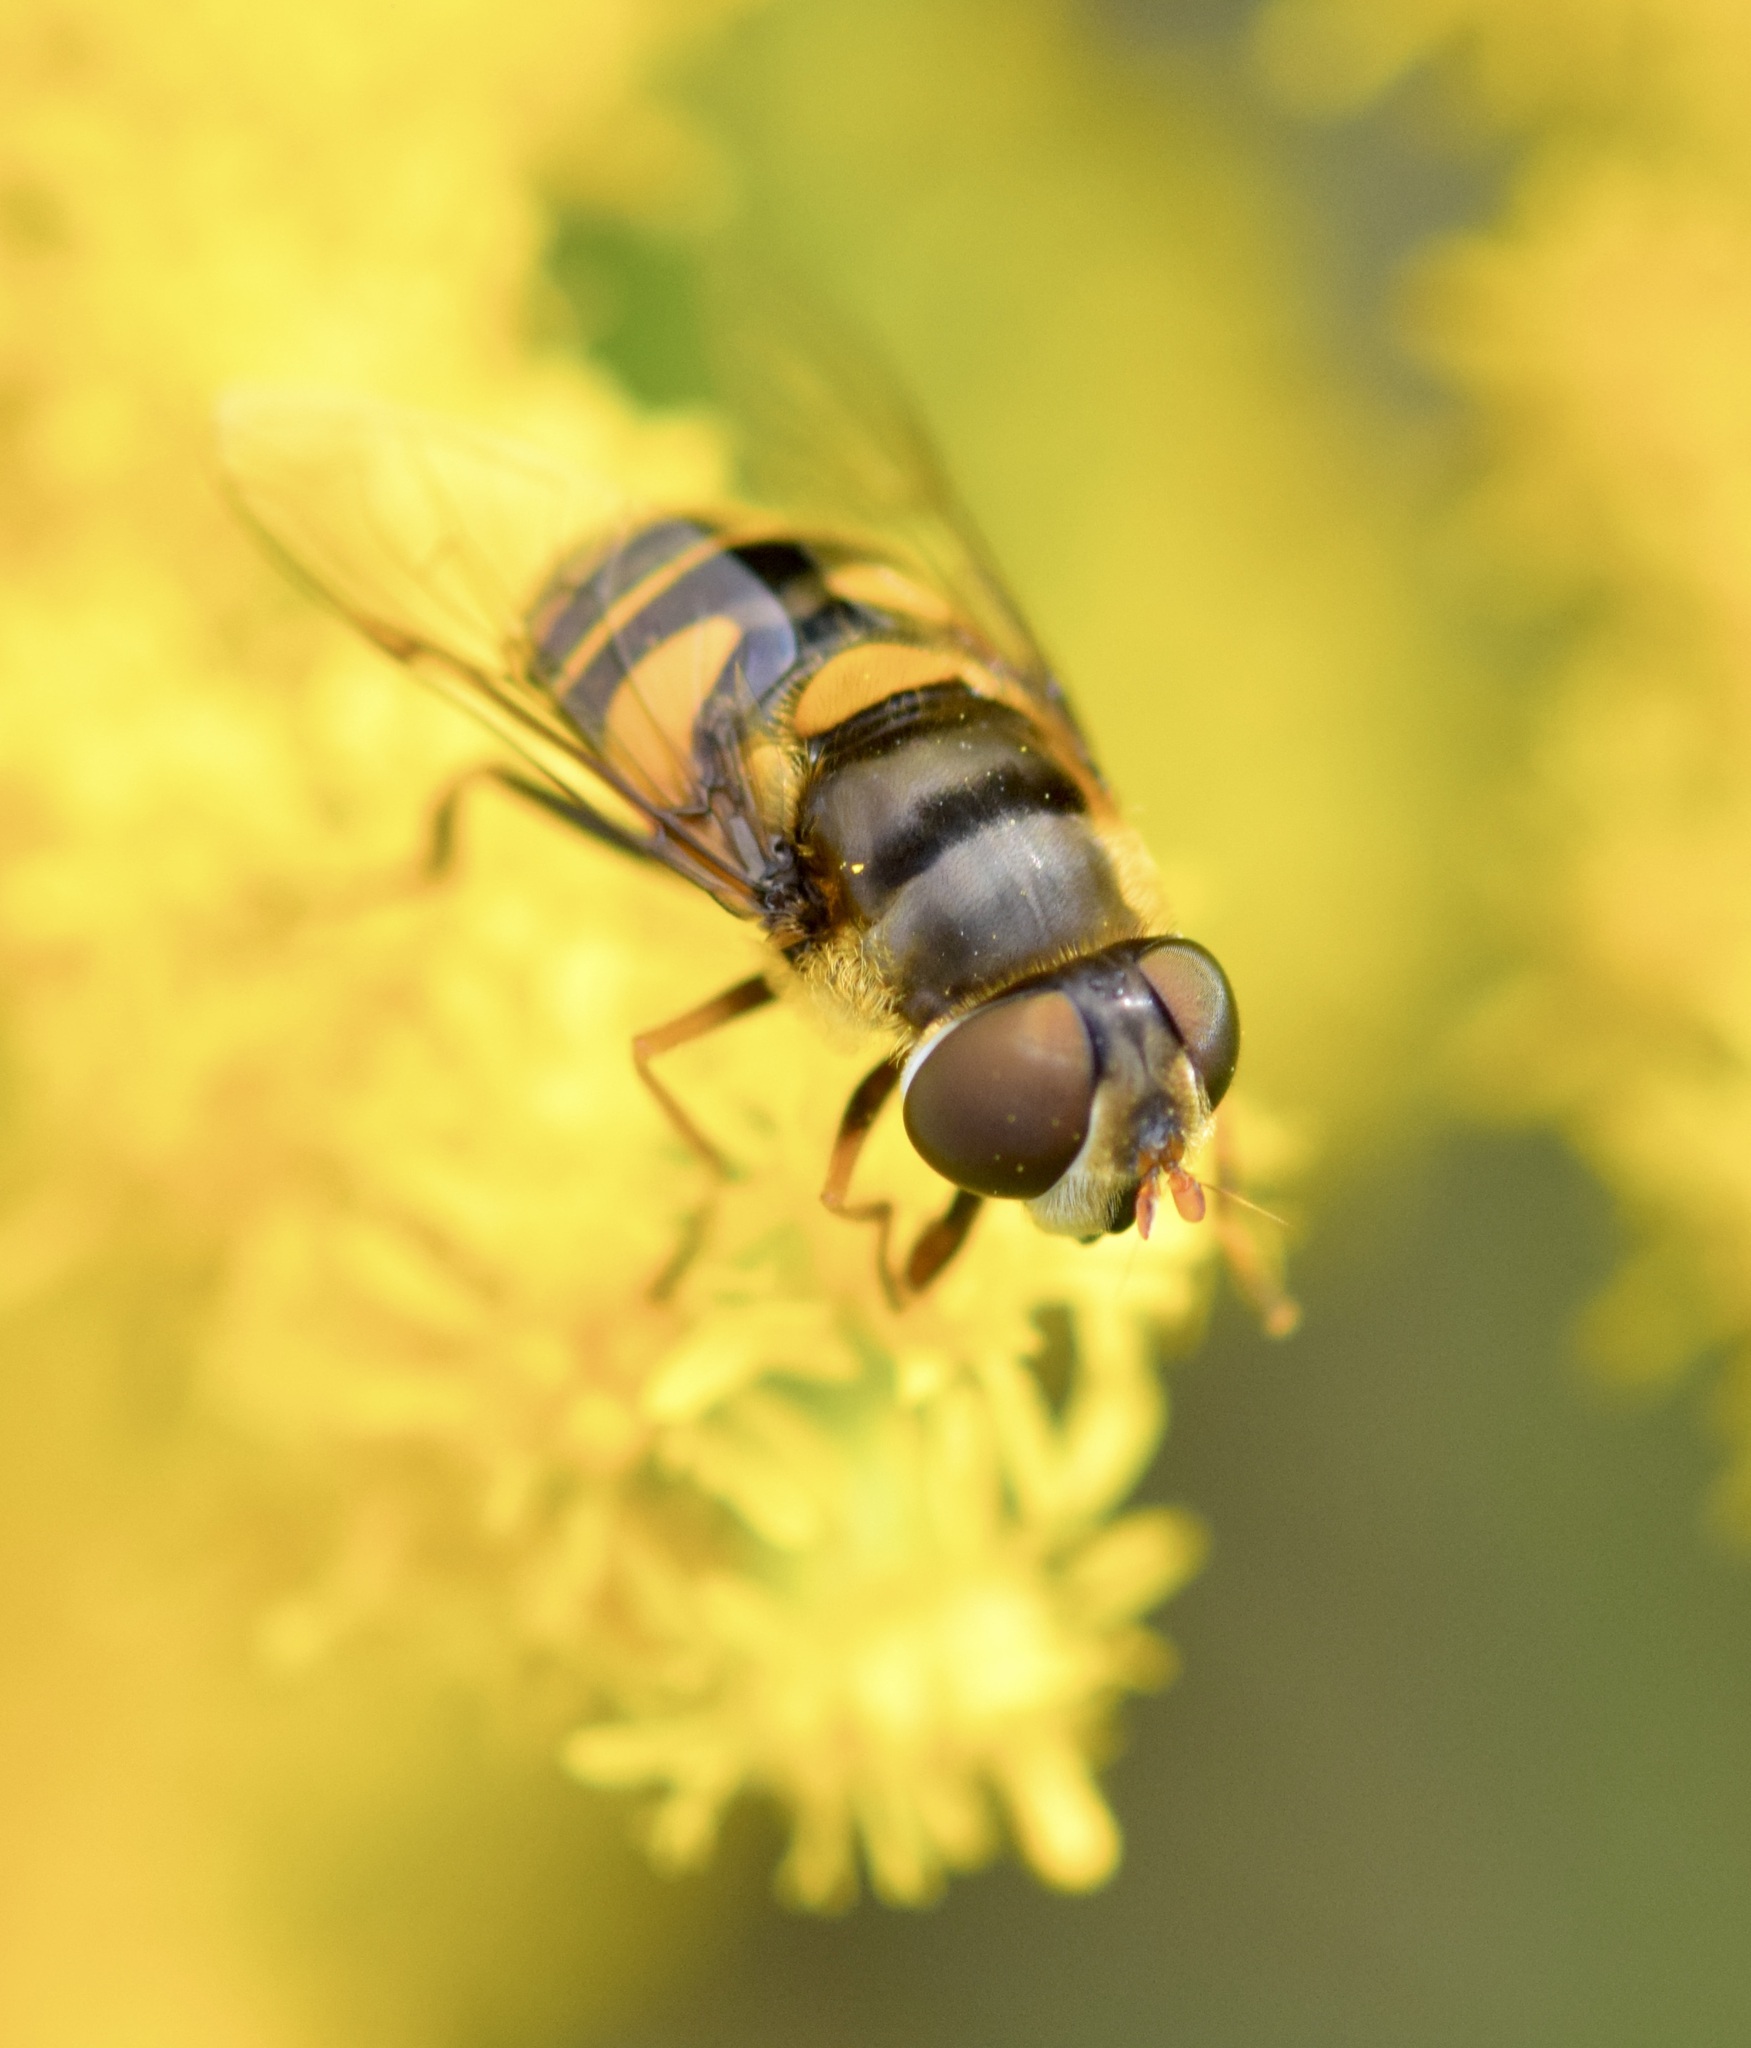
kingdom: Animalia
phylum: Arthropoda
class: Insecta
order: Diptera
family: Syrphidae
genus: Eristalis
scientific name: Eristalis transversa
